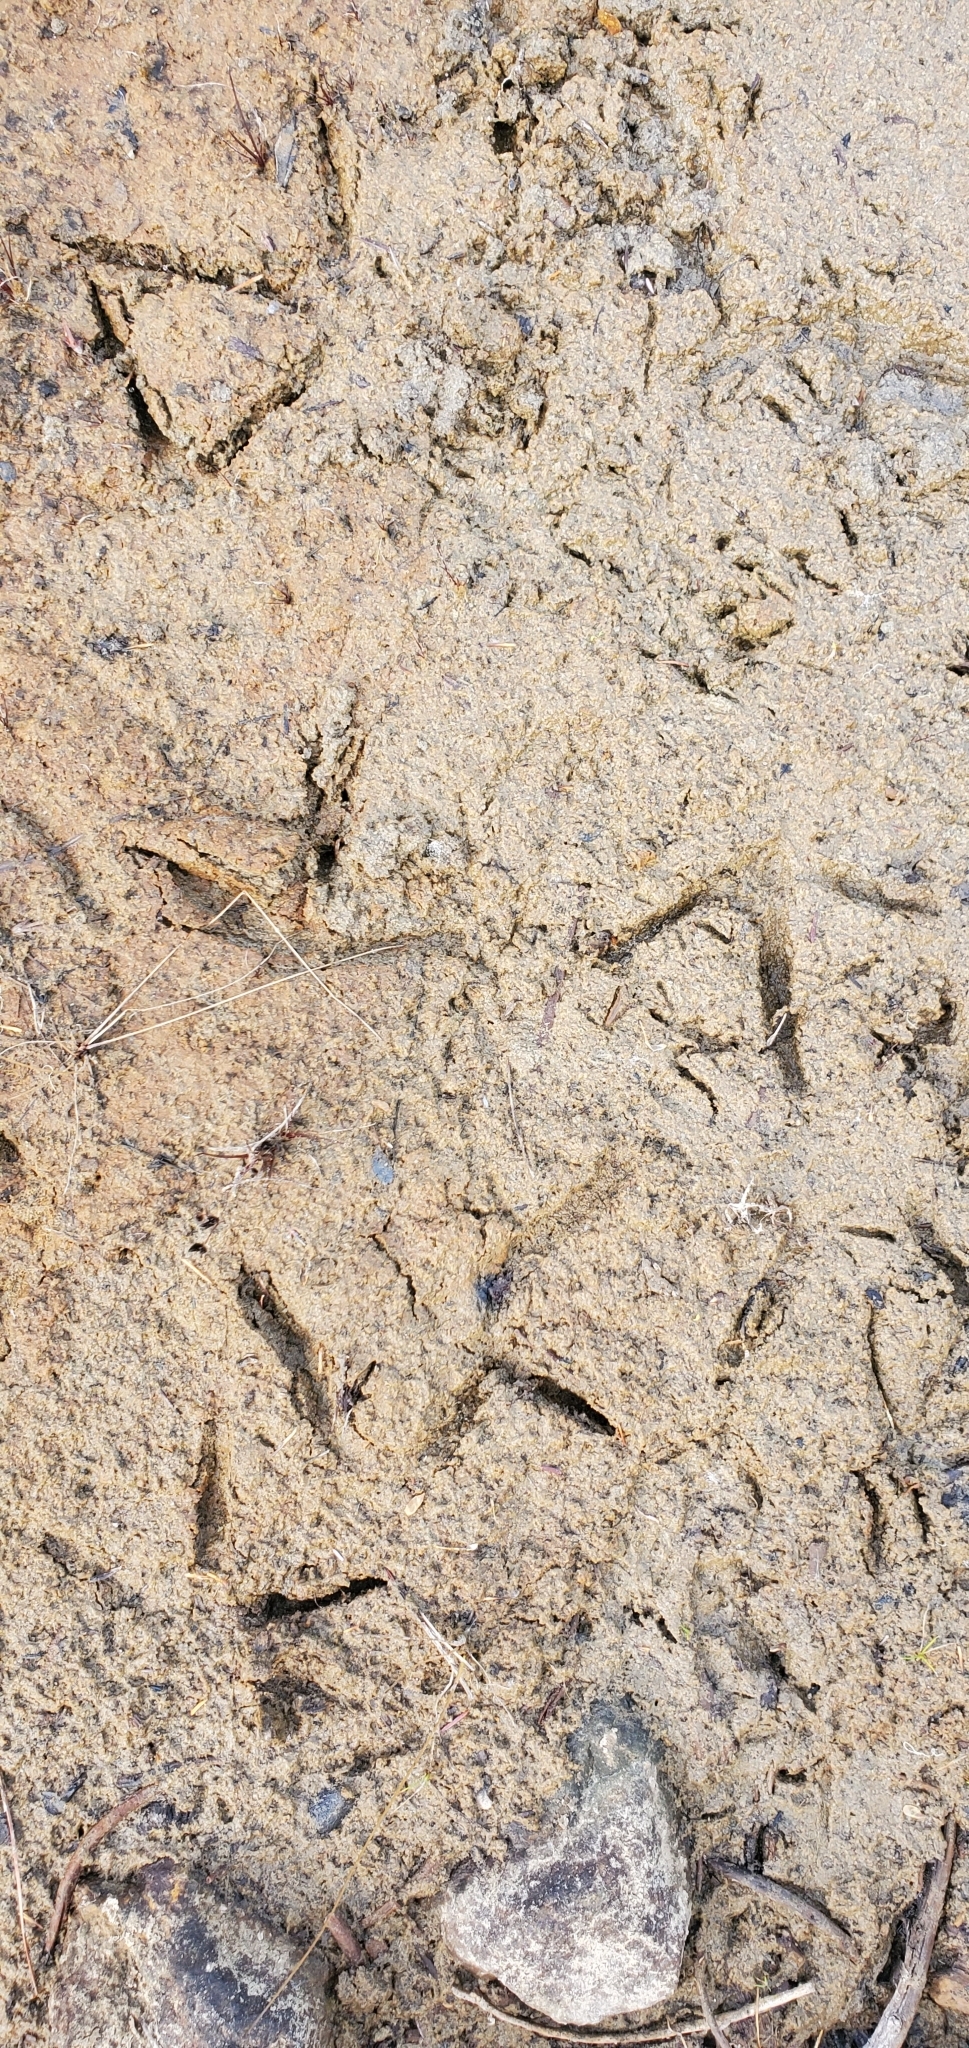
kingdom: Animalia
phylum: Chordata
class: Aves
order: Gruiformes
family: Gruidae
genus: Grus
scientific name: Grus canadensis
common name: Sandhill crane
